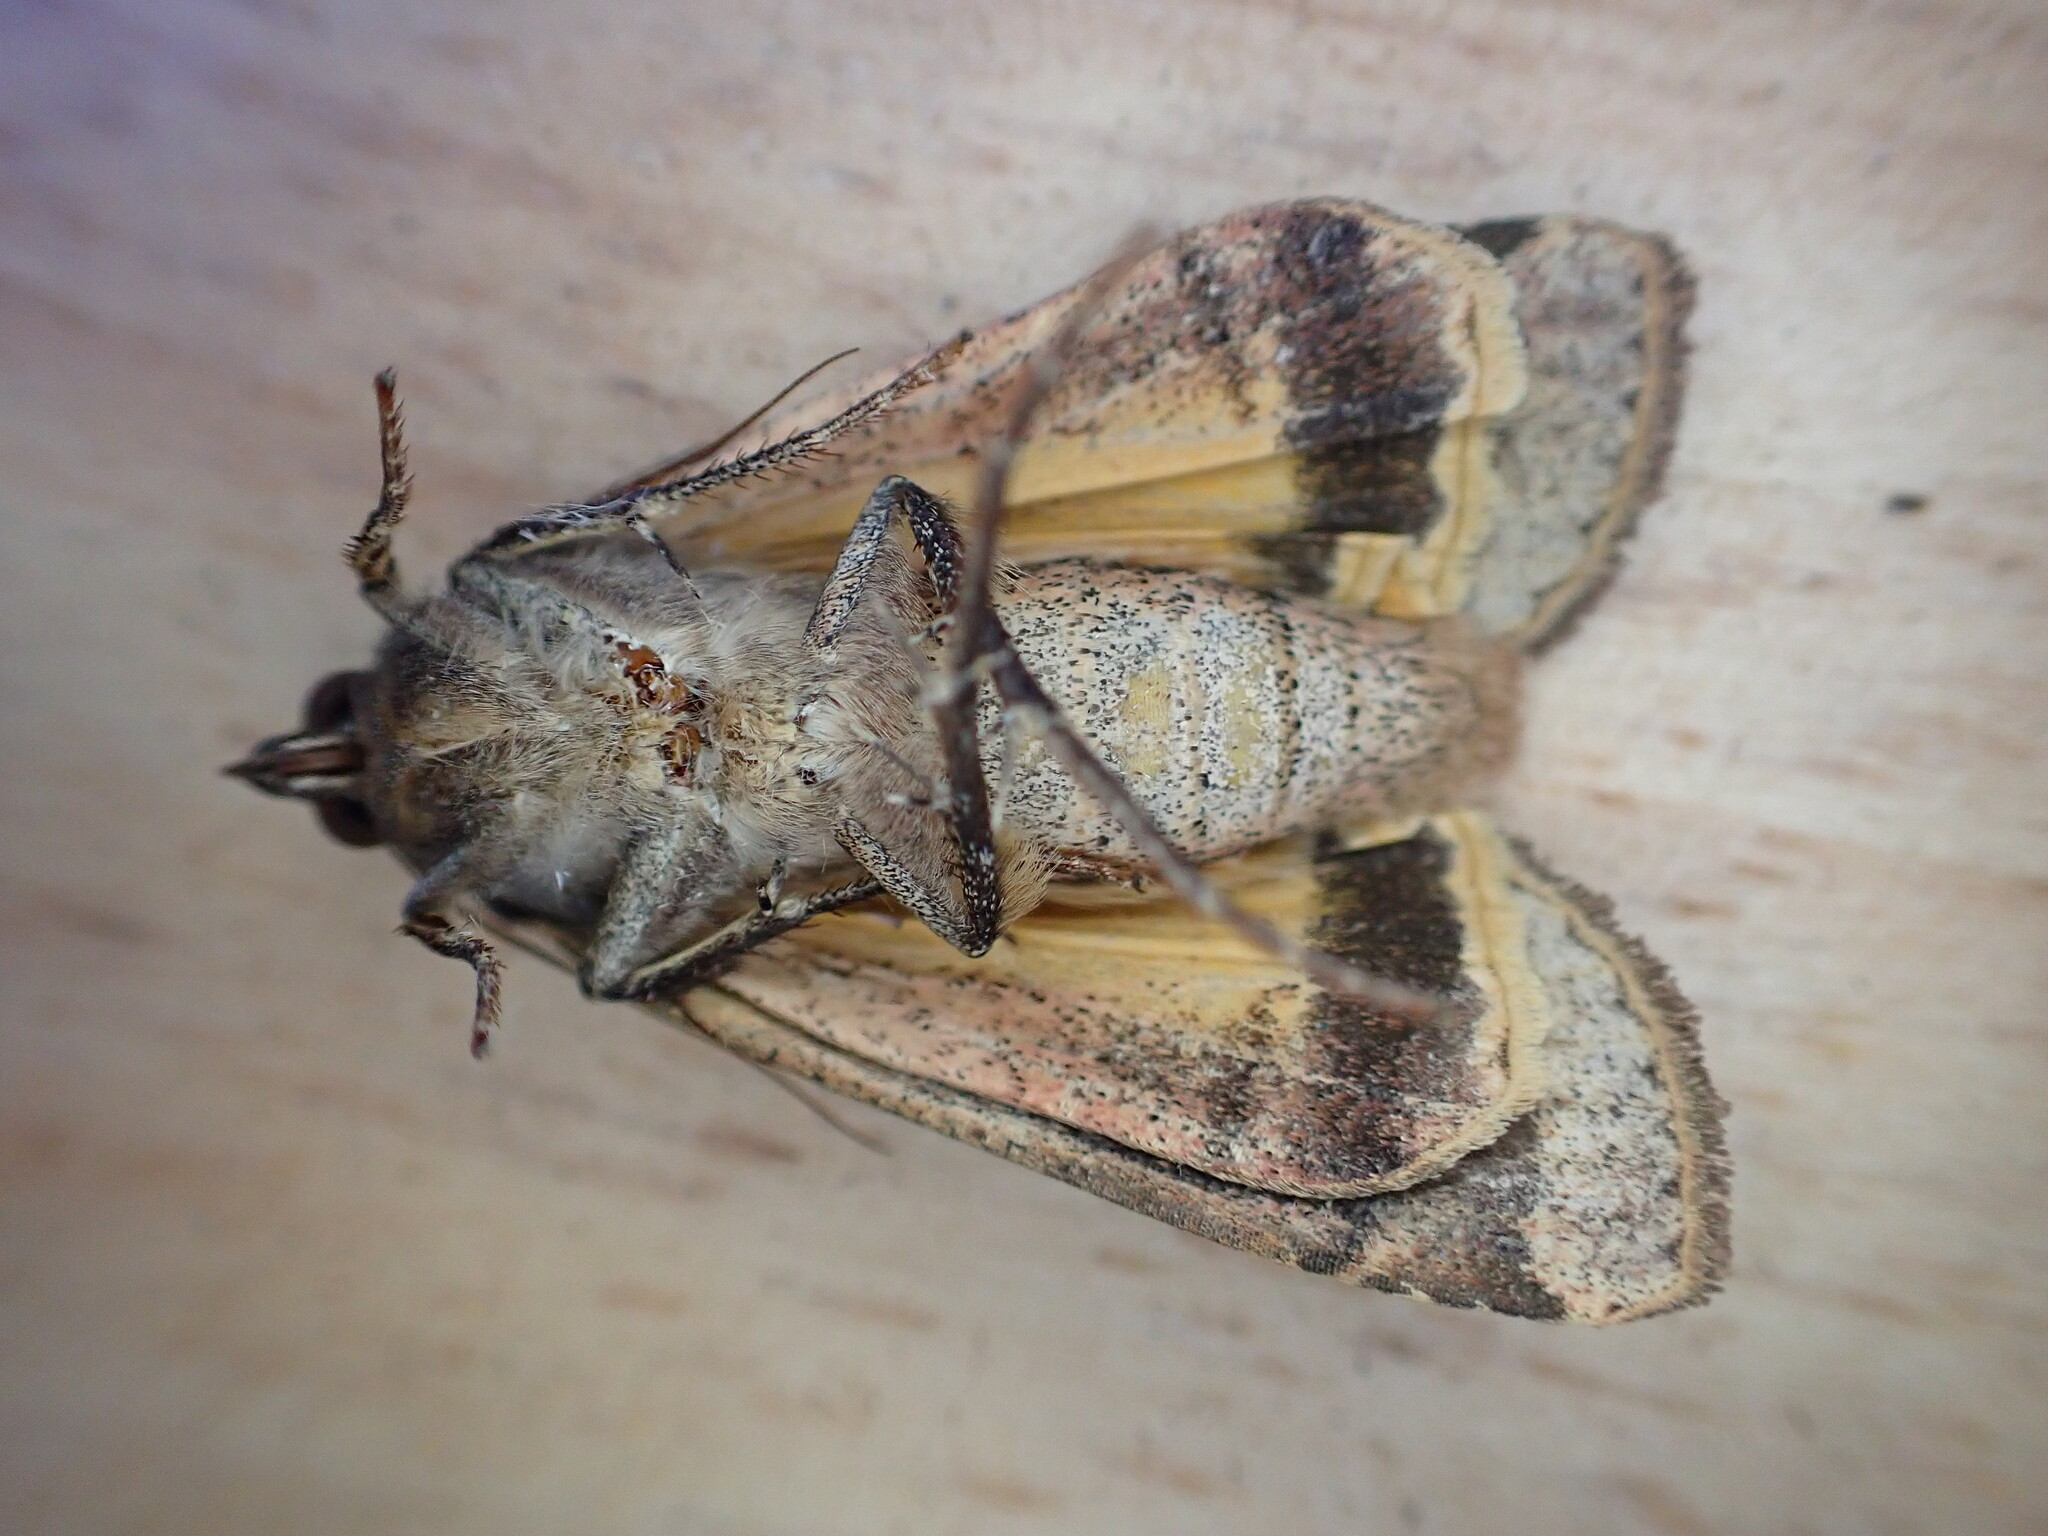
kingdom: Animalia
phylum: Arthropoda
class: Insecta
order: Lepidoptera
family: Noctuidae
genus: Noctua
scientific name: Noctua pronuba
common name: Large yellow underwing
